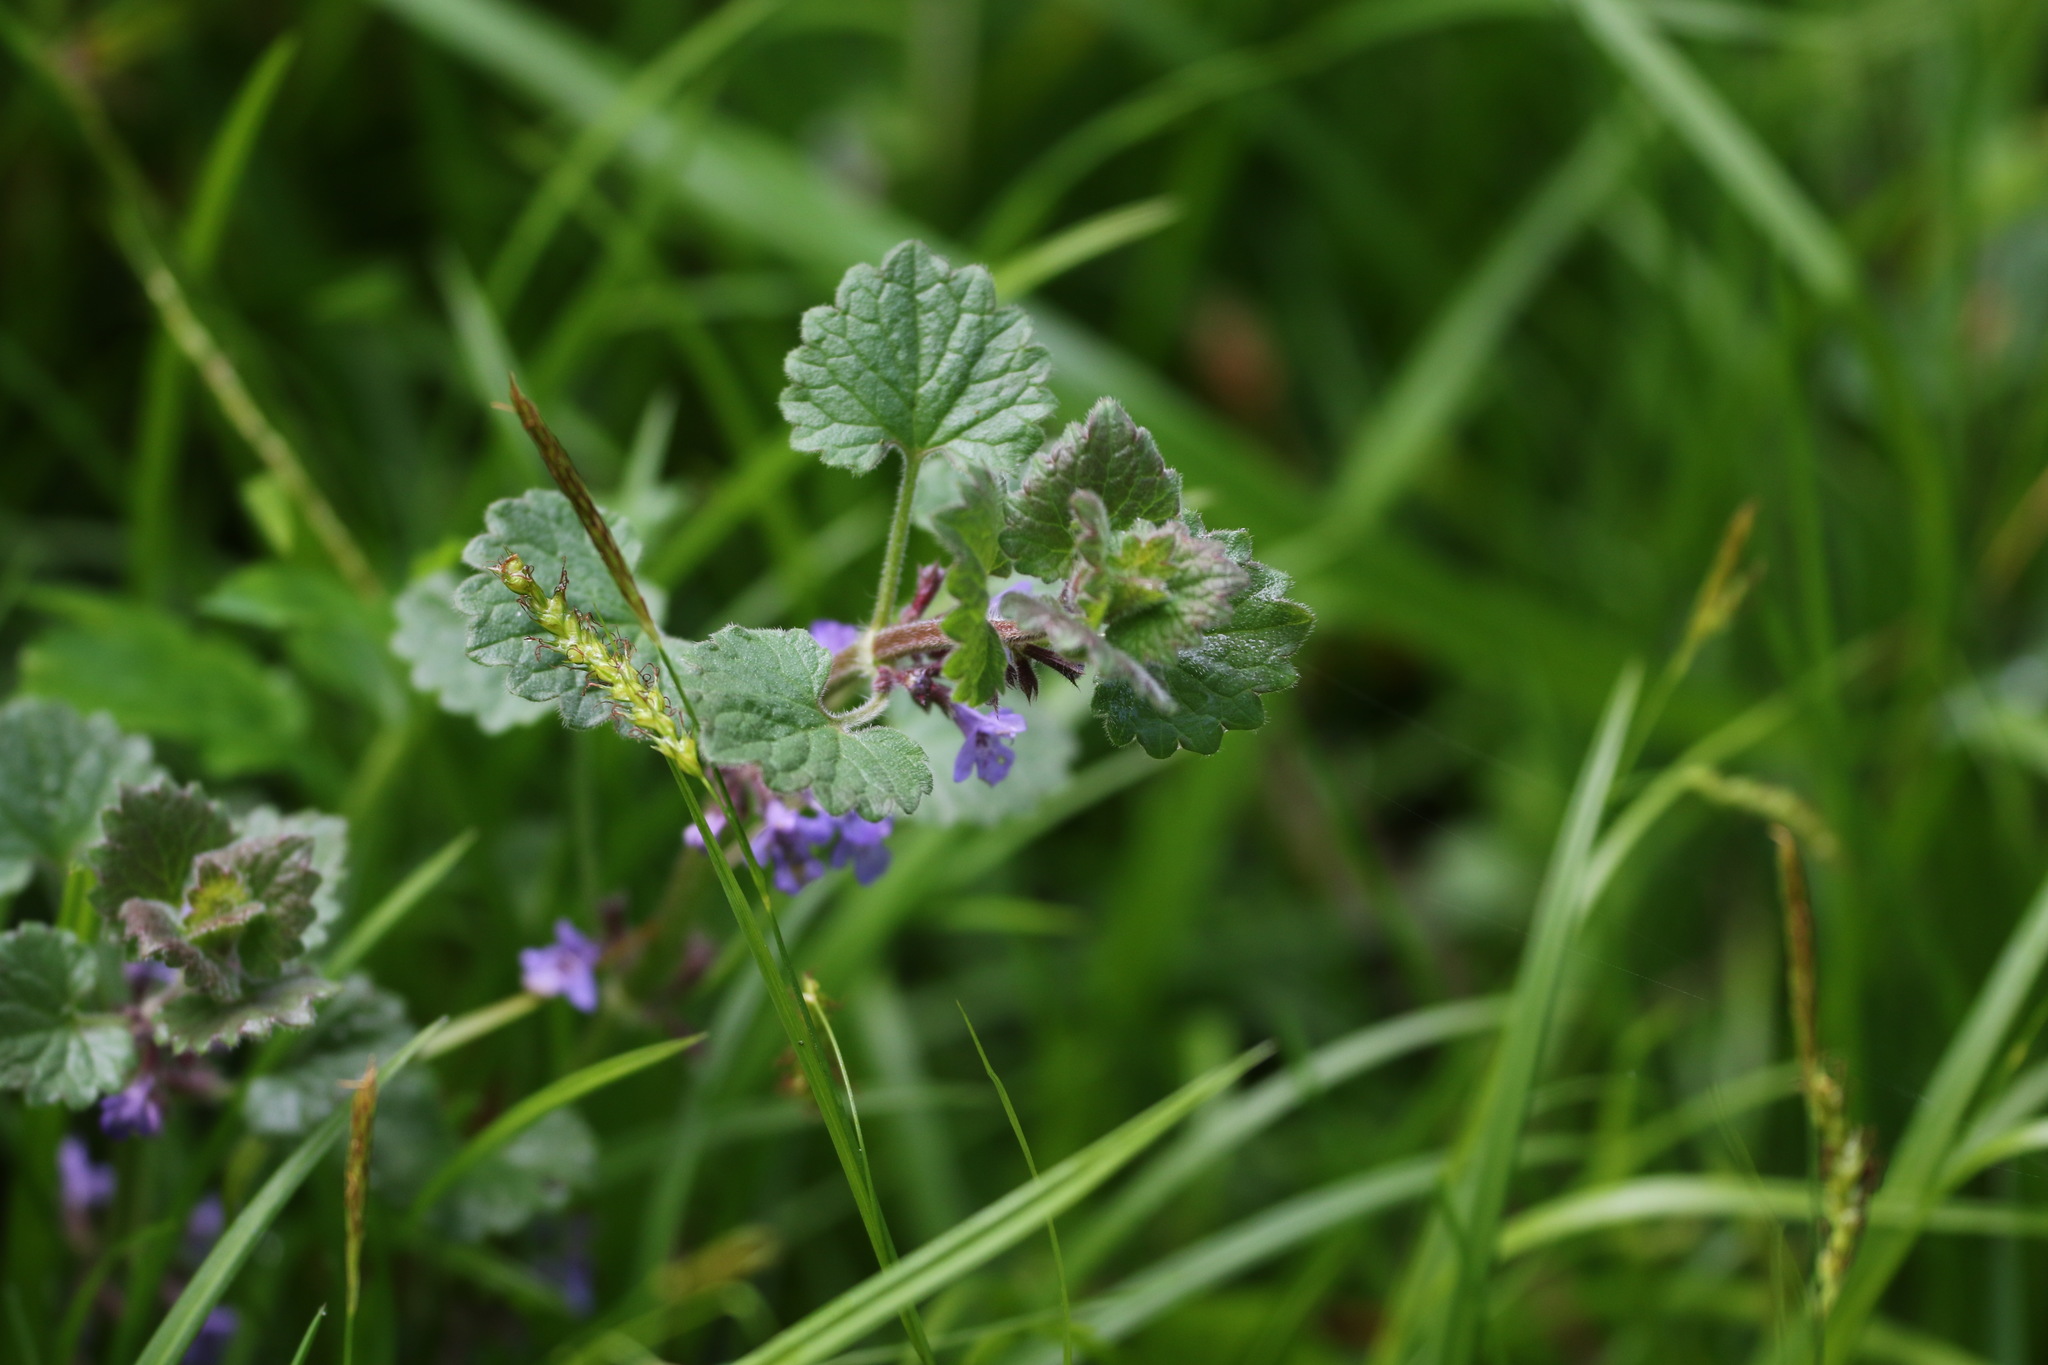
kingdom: Plantae
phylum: Tracheophyta
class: Magnoliopsida
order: Lamiales
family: Lamiaceae
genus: Glechoma
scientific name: Glechoma hederacea
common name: Ground ivy
